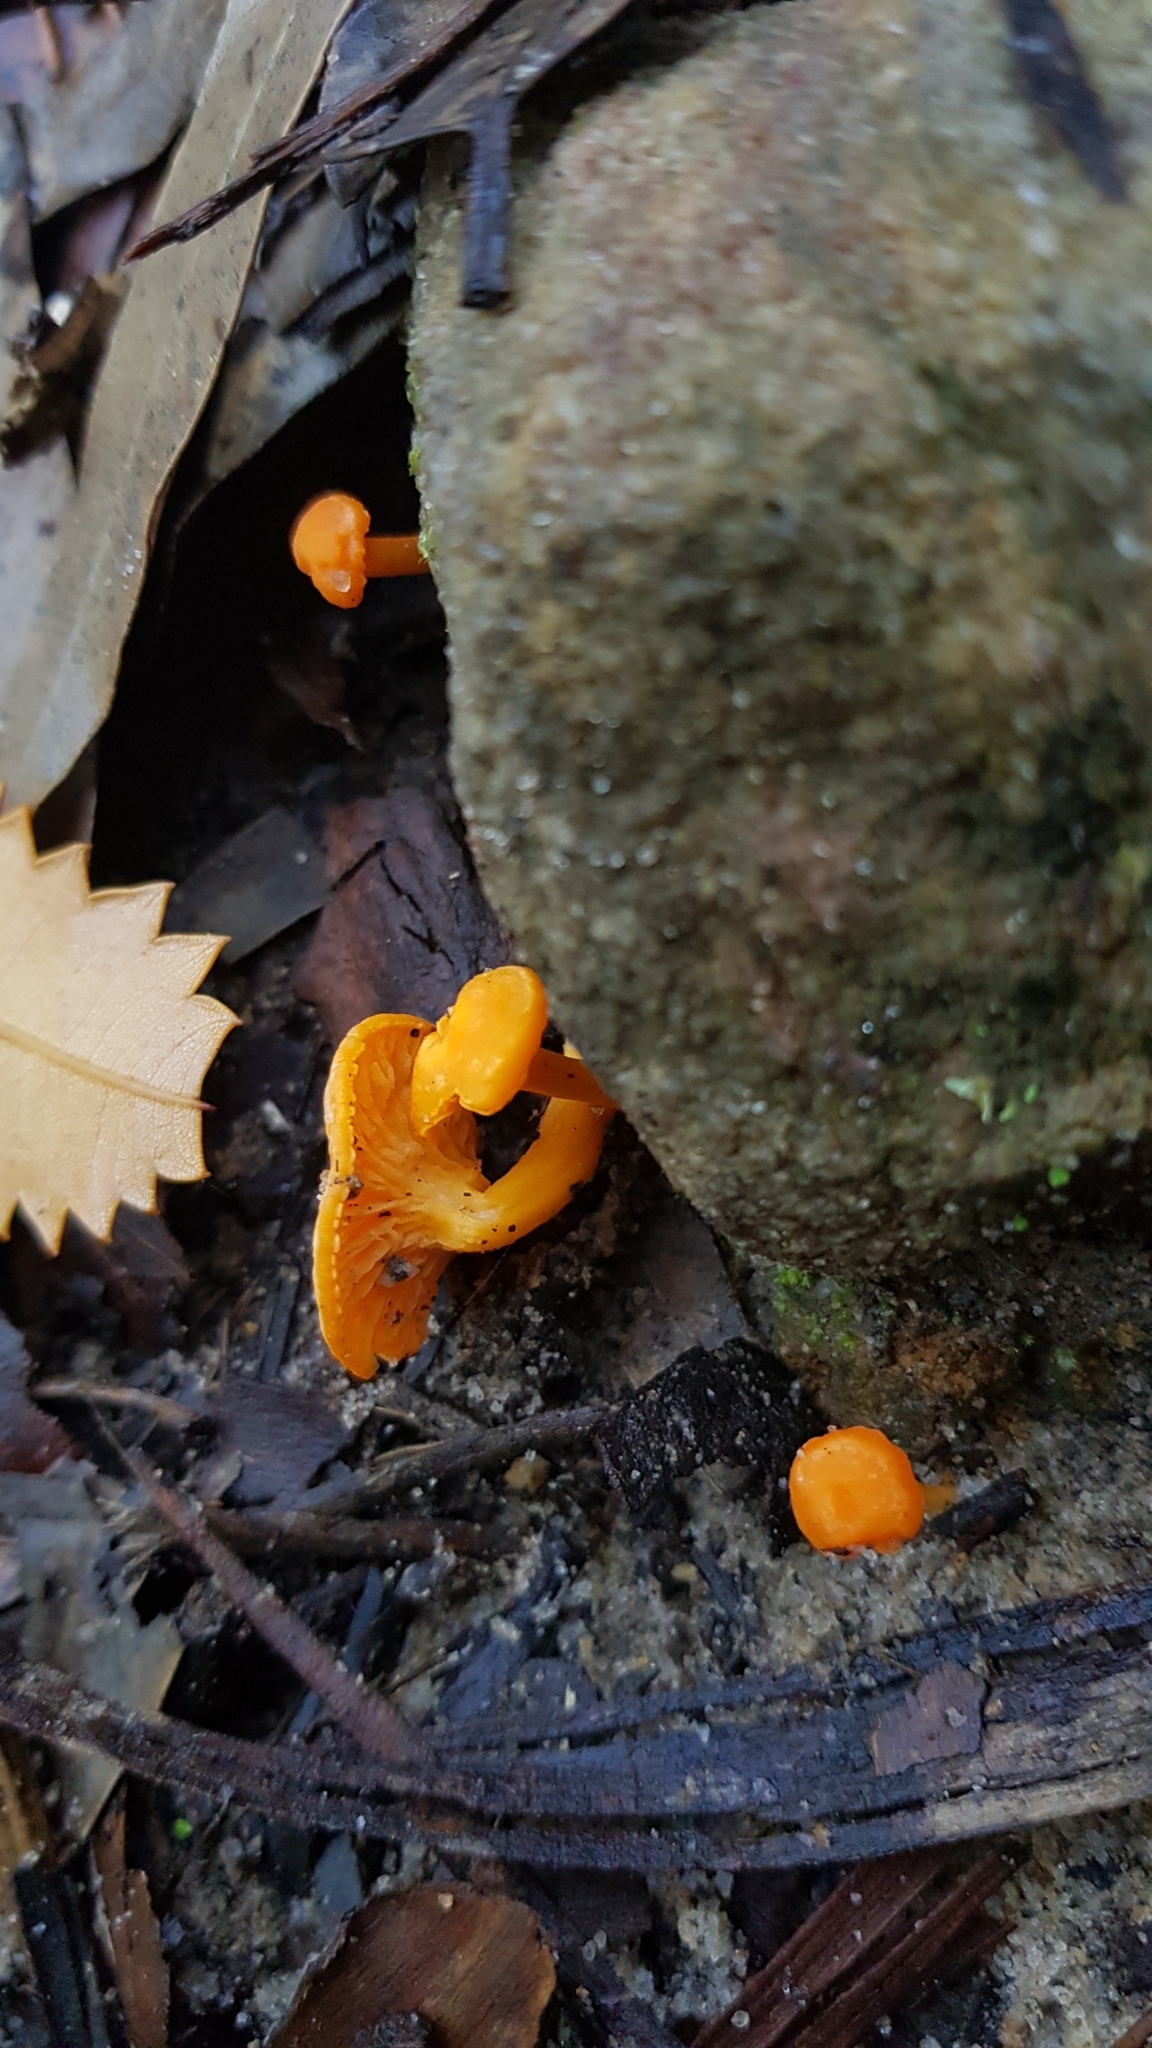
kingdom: Fungi
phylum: Basidiomycota
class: Agaricomycetes
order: Cantharellales
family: Hydnaceae
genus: Cantharellus
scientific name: Cantharellus
